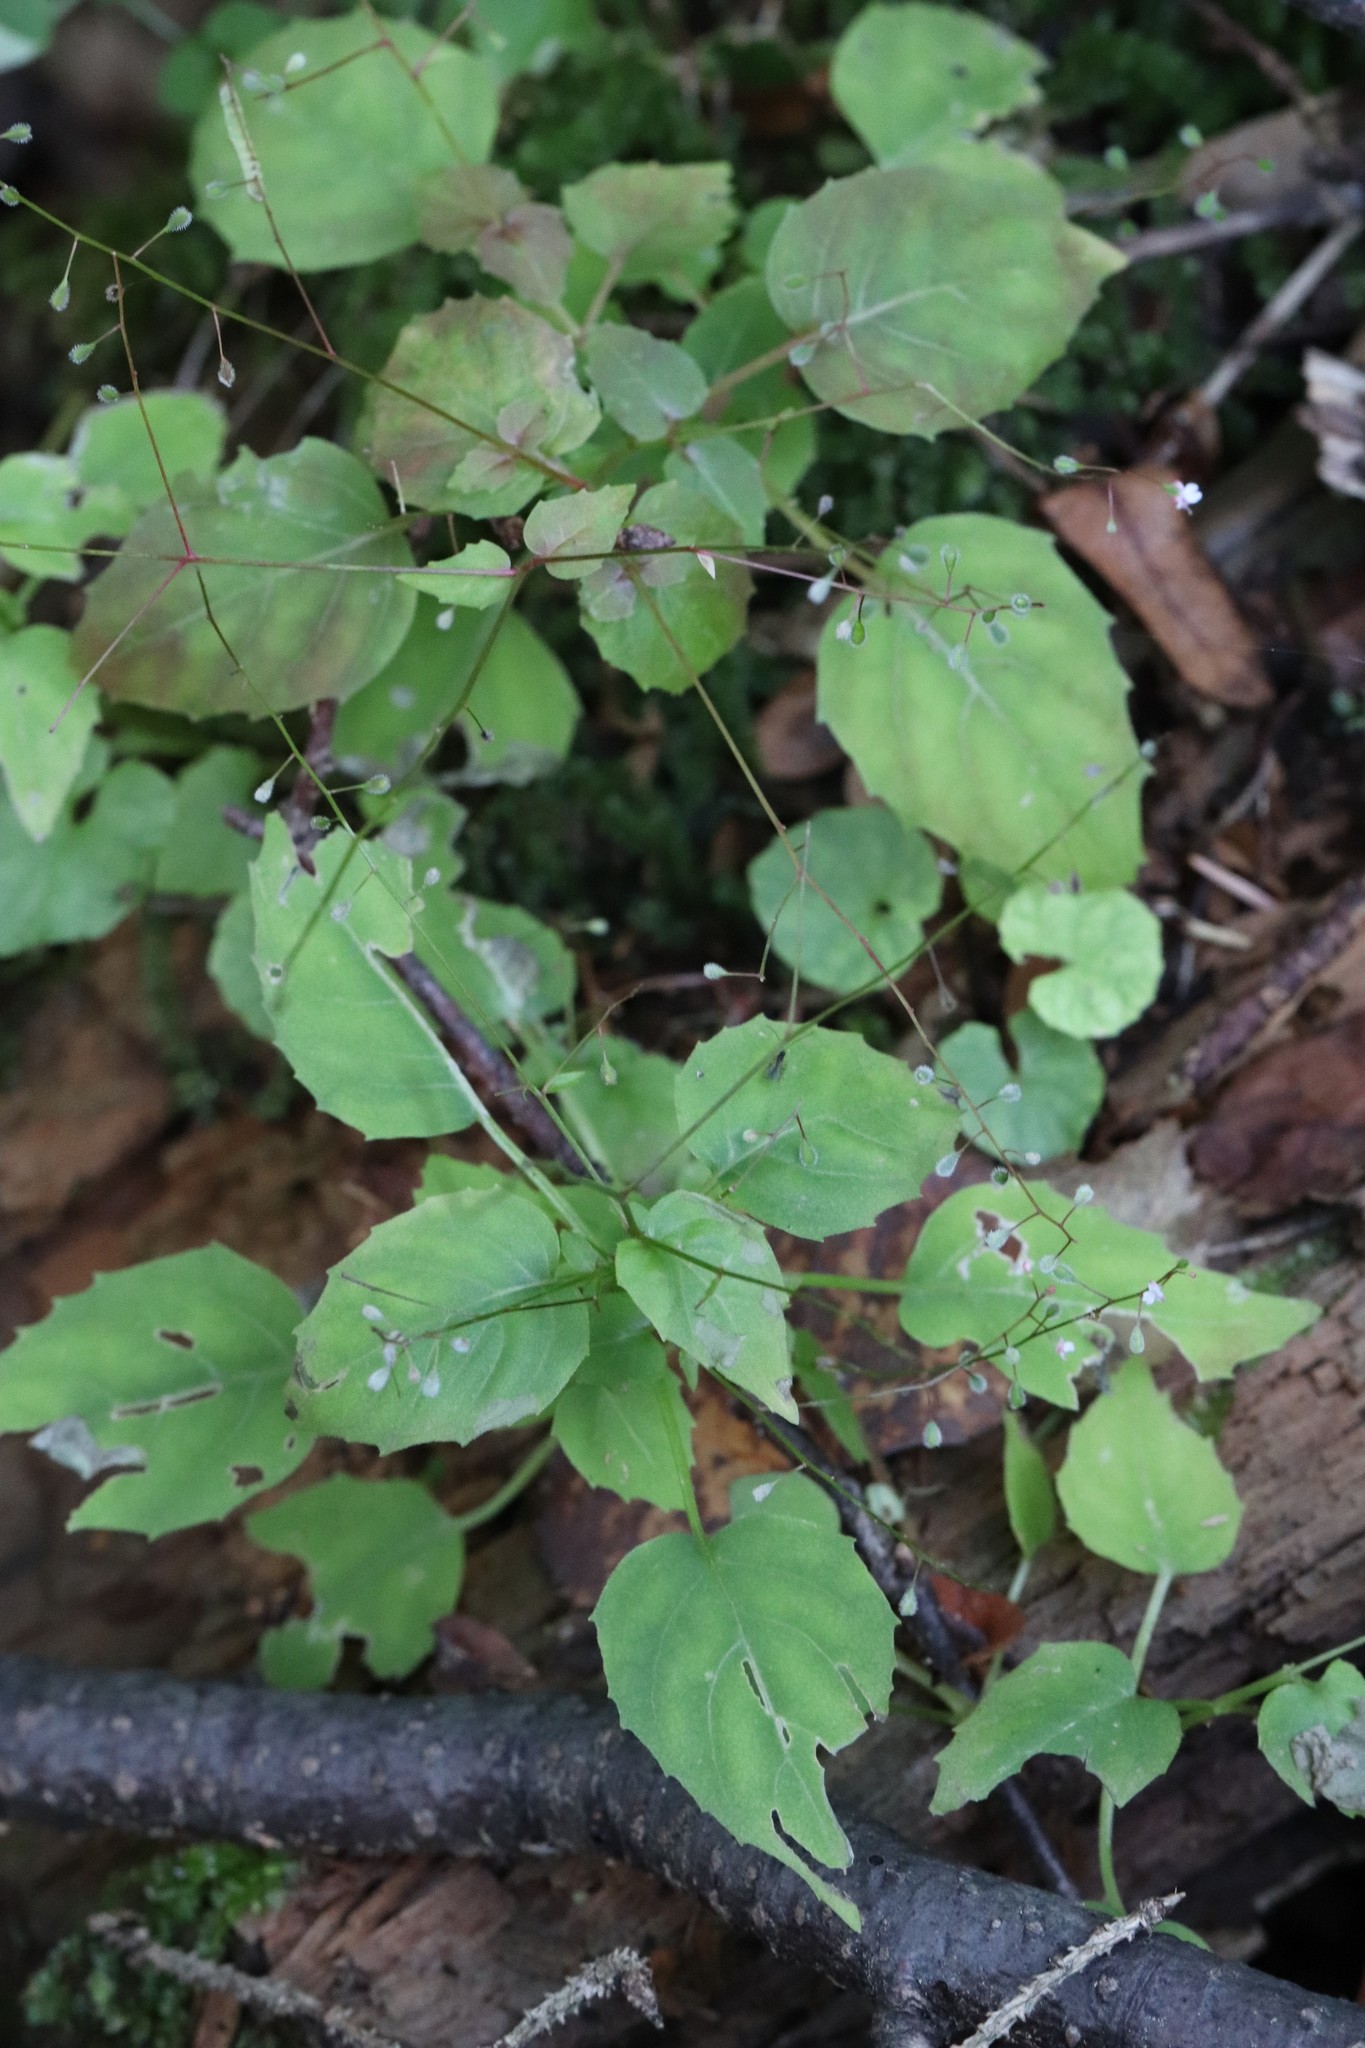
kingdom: Plantae
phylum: Tracheophyta
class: Magnoliopsida
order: Myrtales
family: Onagraceae
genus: Circaea
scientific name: Circaea alpina
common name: Alpine enchanter's-nightshade
